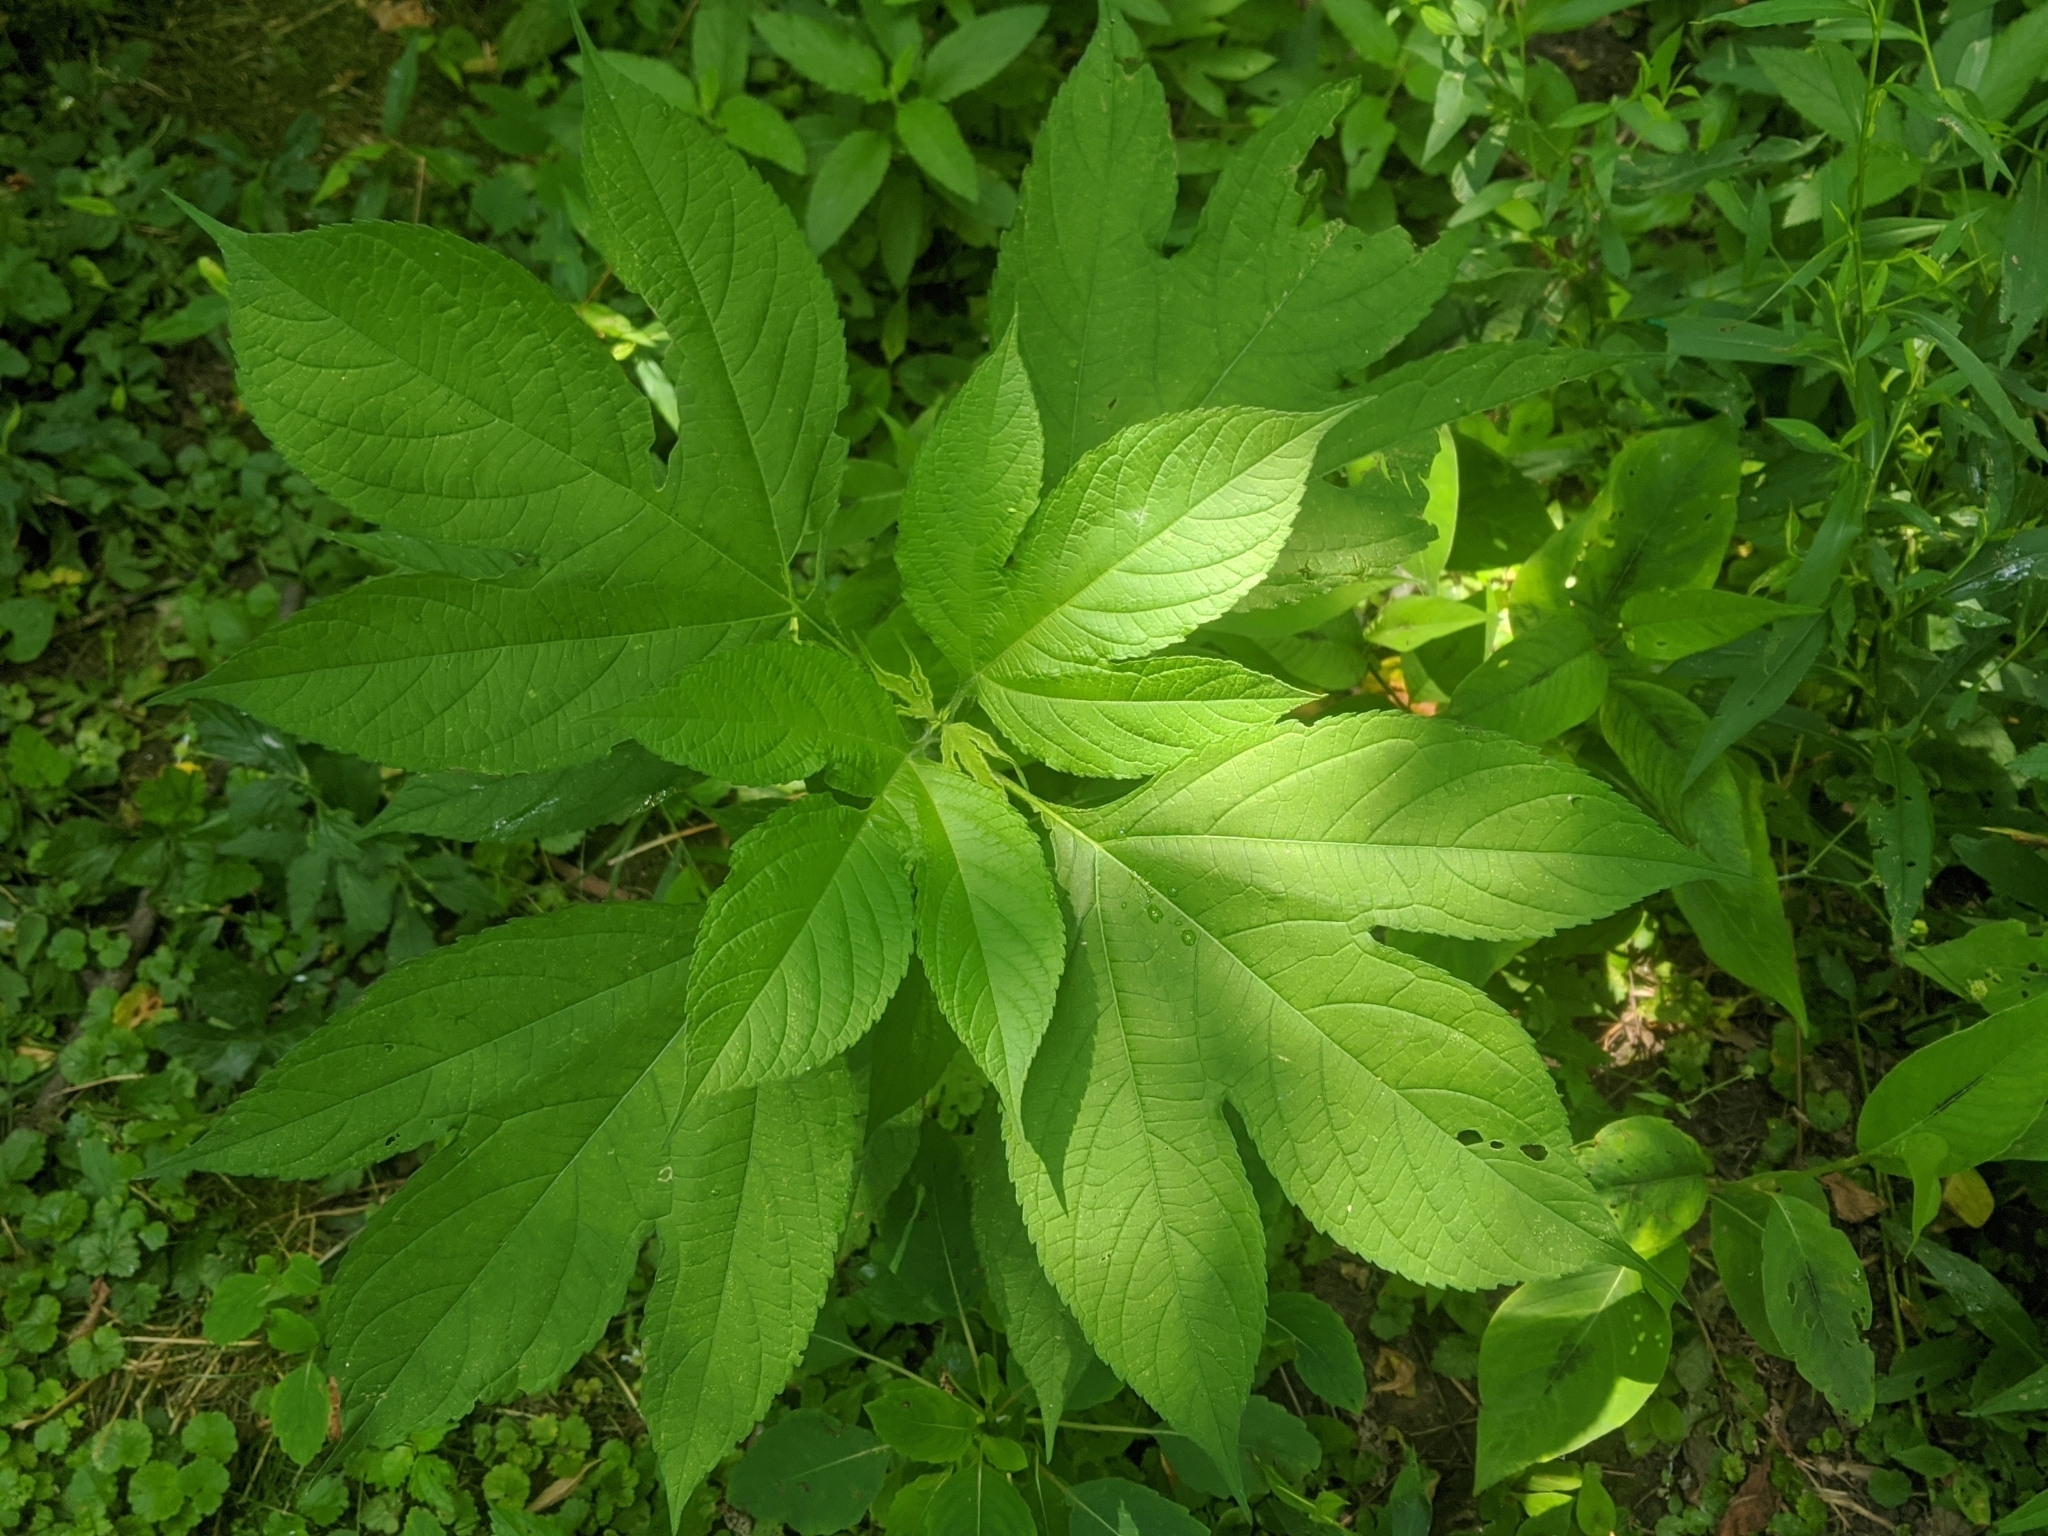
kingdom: Plantae
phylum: Tracheophyta
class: Magnoliopsida
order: Asterales
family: Asteraceae
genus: Ambrosia
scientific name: Ambrosia trifida
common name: Giant ragweed
